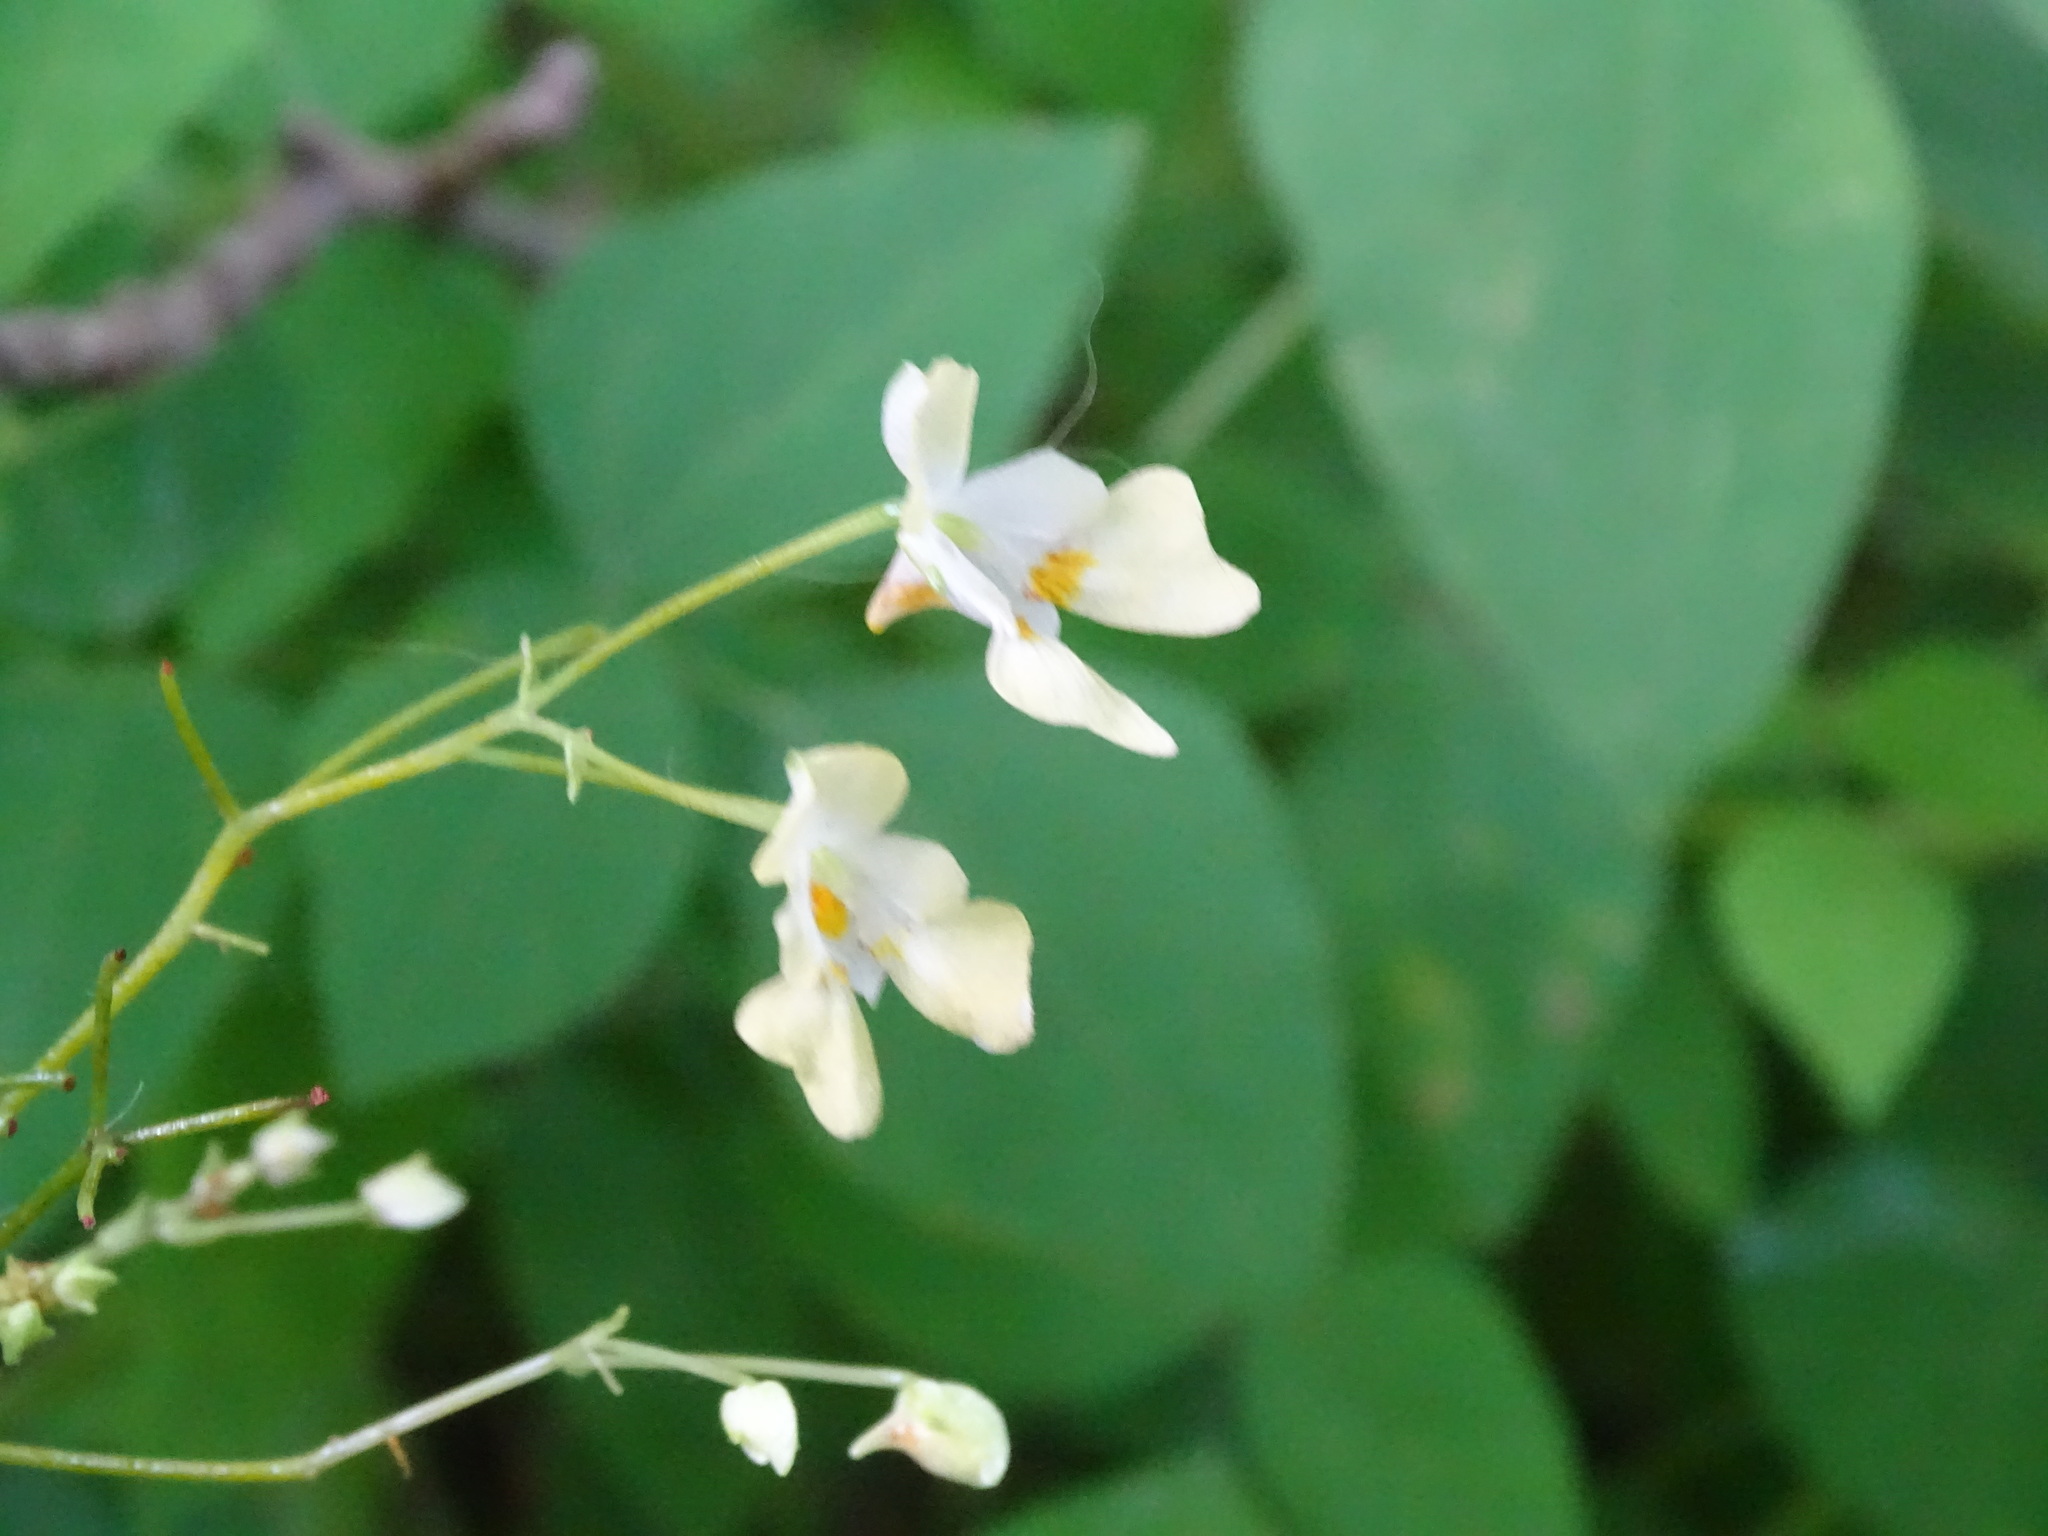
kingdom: Plantae
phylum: Tracheophyta
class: Magnoliopsida
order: Ericales
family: Balsaminaceae
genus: Impatiens
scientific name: Impatiens parviflora
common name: Small balsam
